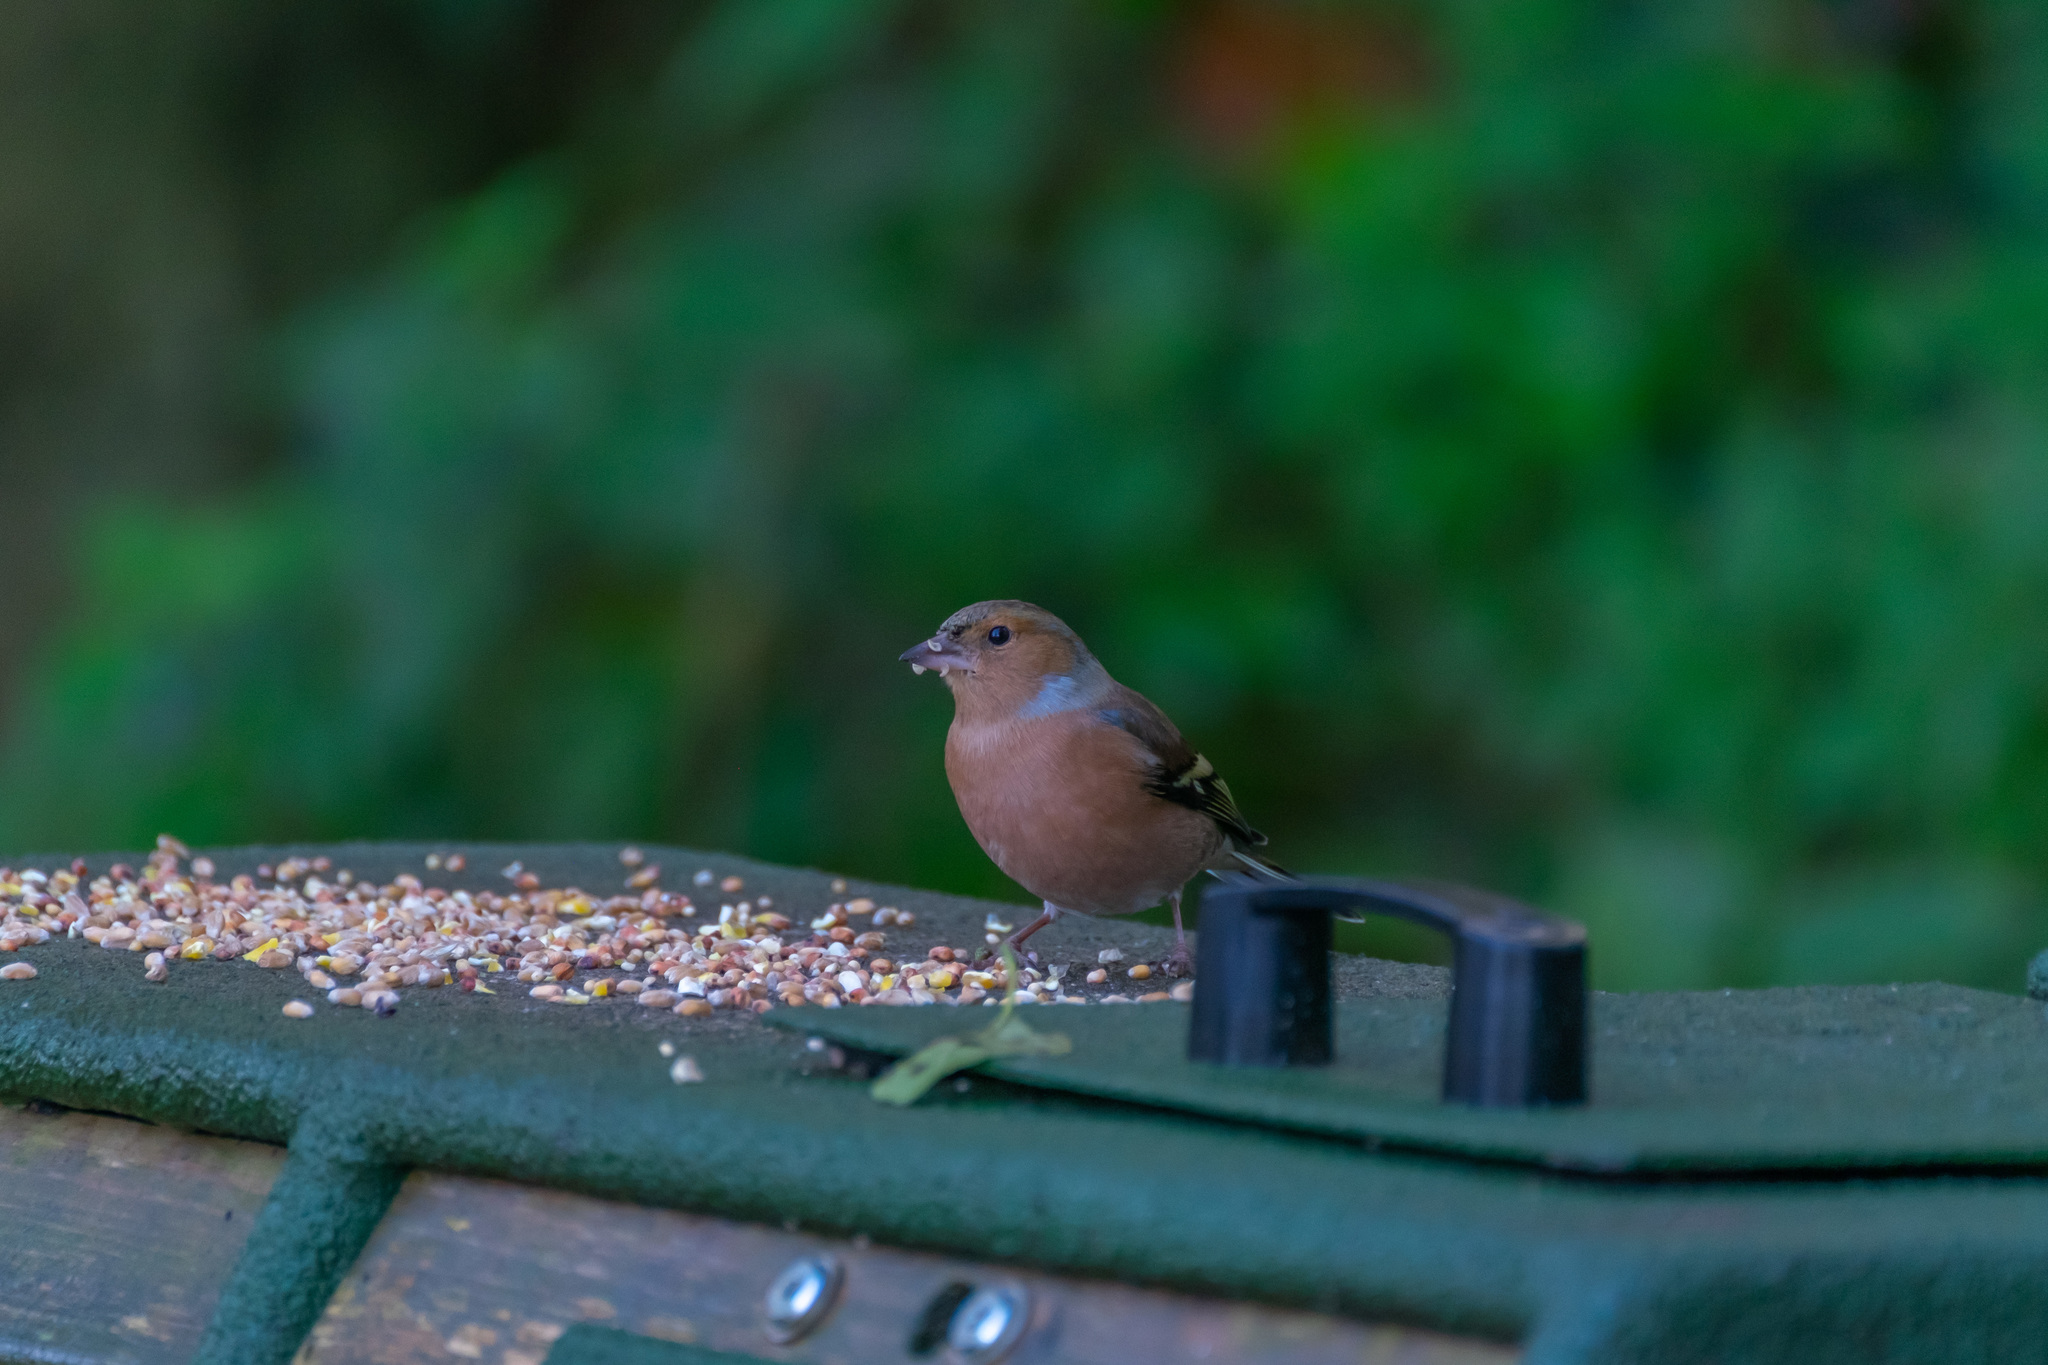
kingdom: Animalia
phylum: Chordata
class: Aves
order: Passeriformes
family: Fringillidae
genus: Fringilla
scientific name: Fringilla coelebs
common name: Common chaffinch
